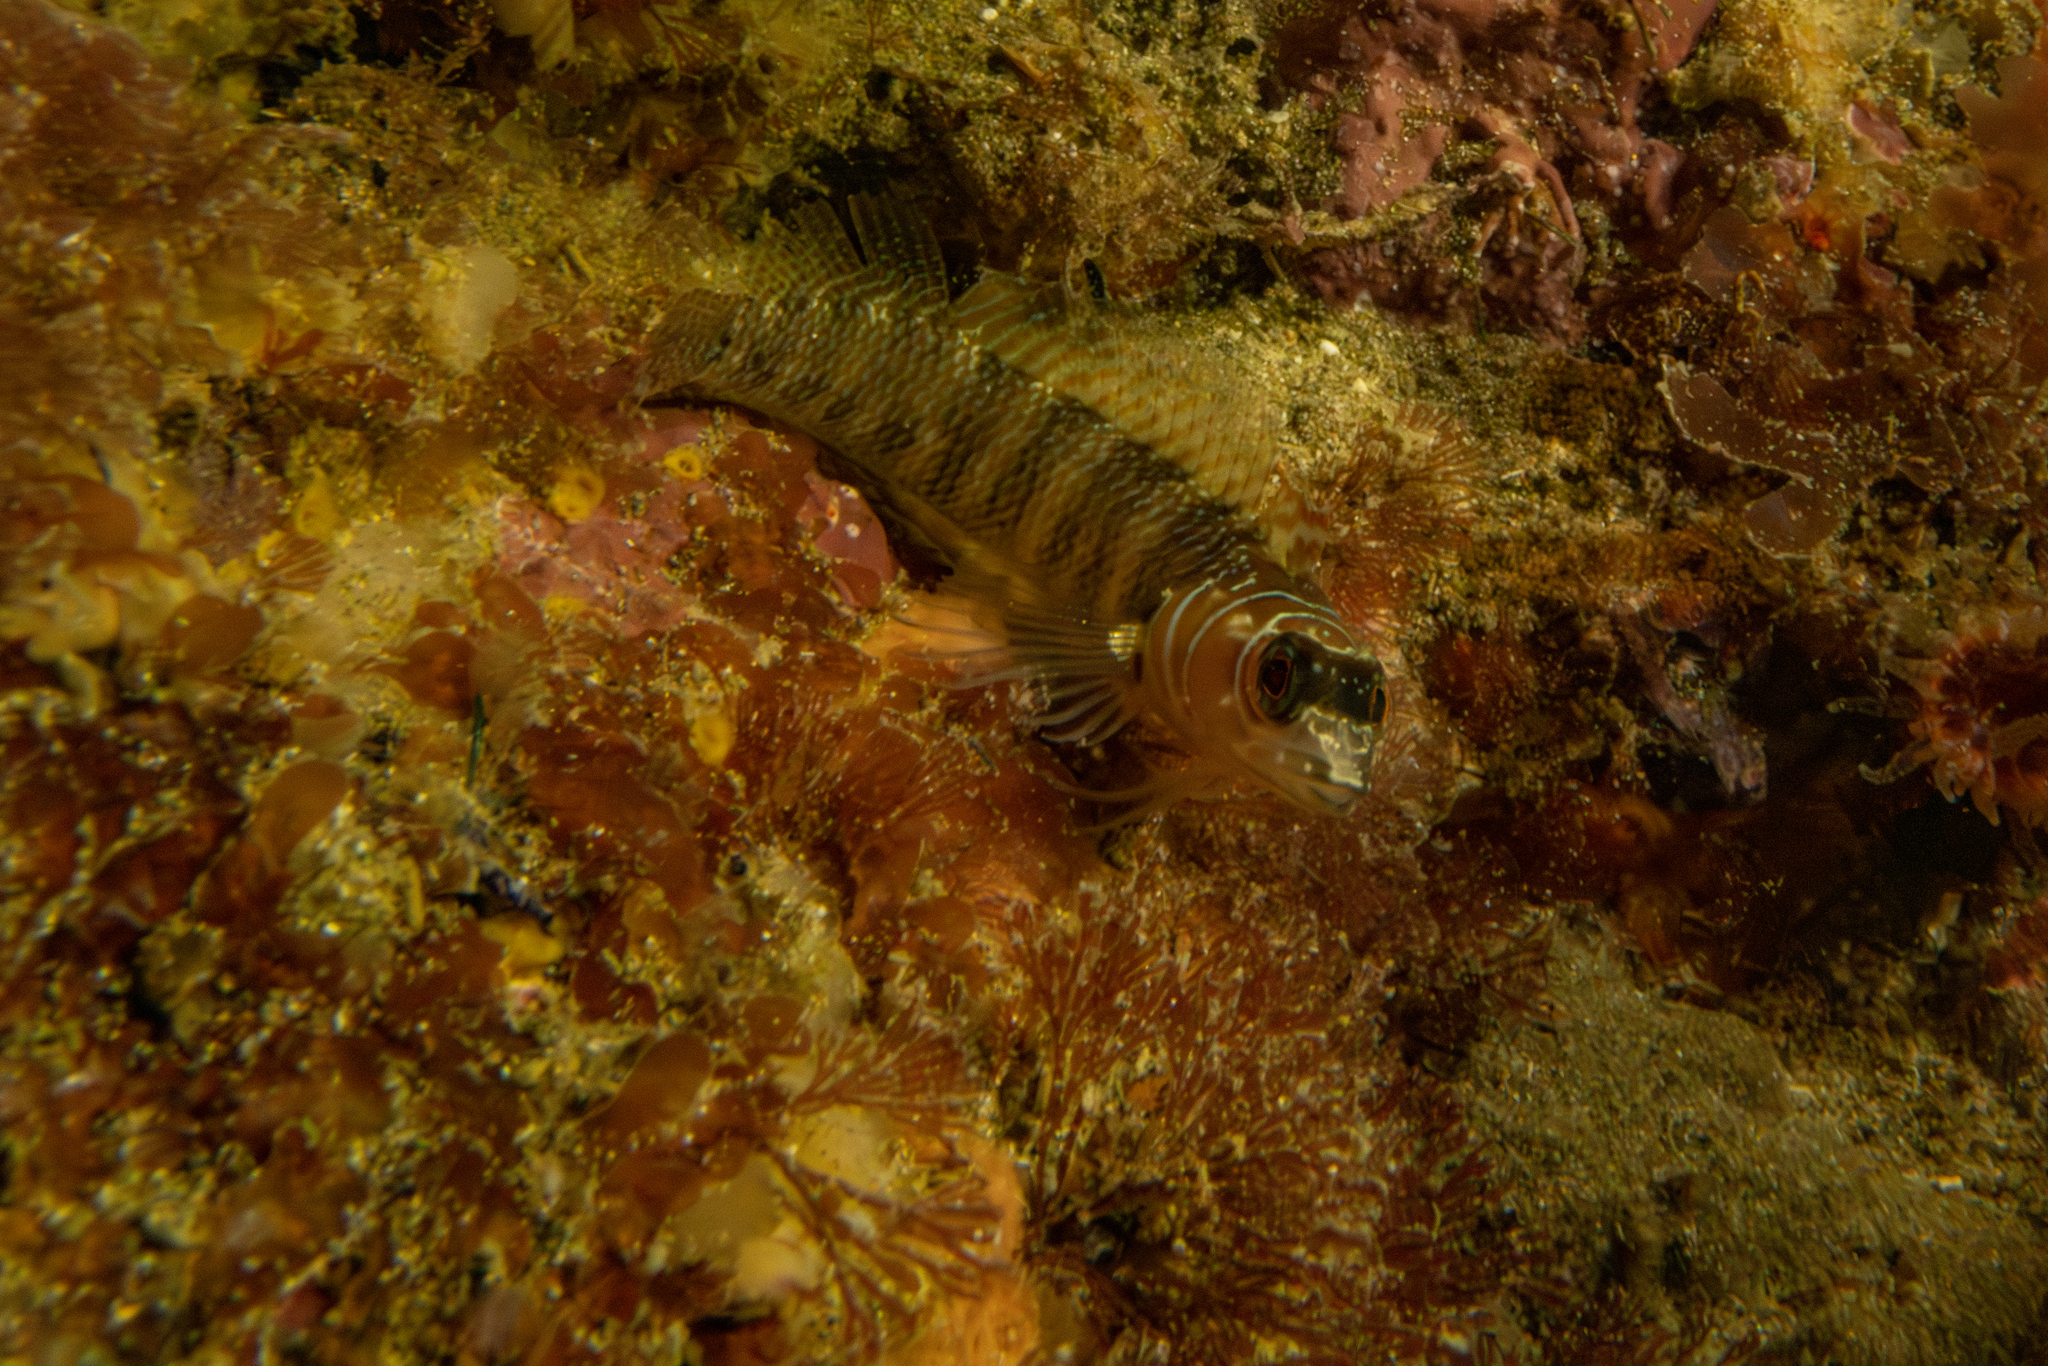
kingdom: Animalia
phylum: Chordata
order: Perciformes
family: Tripterygiidae
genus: Ruanoho
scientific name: Ruanoho whero
